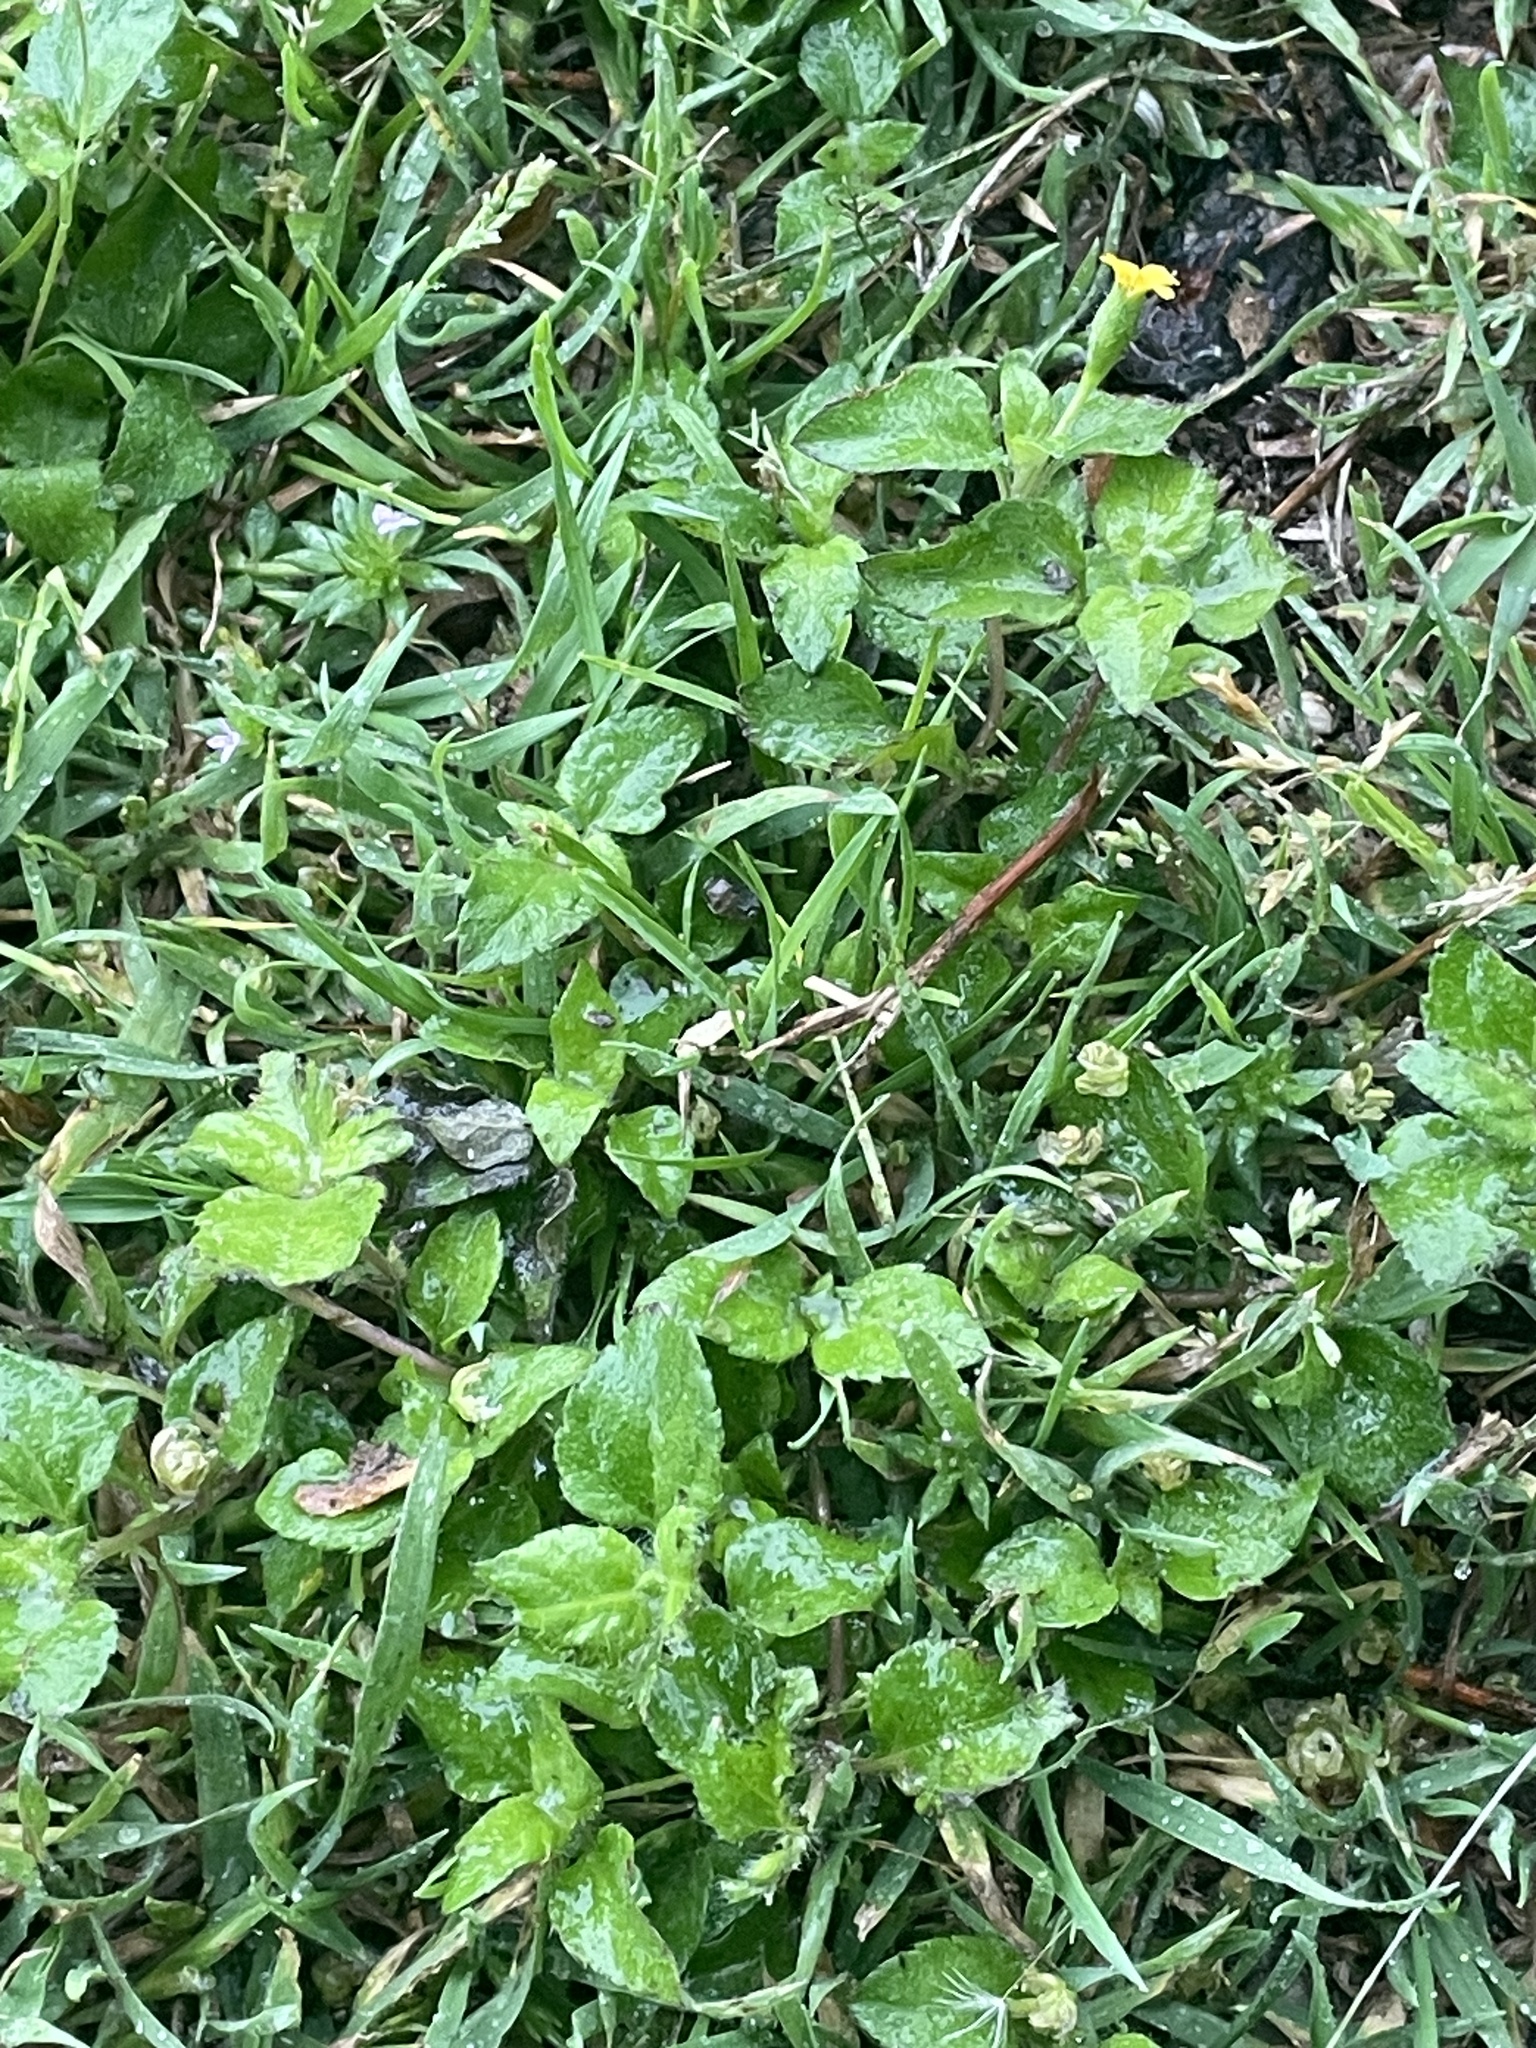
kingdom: Plantae
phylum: Tracheophyta
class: Magnoliopsida
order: Asterales
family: Asteraceae
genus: Calyptocarpus
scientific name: Calyptocarpus vialis
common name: Straggler daisy
